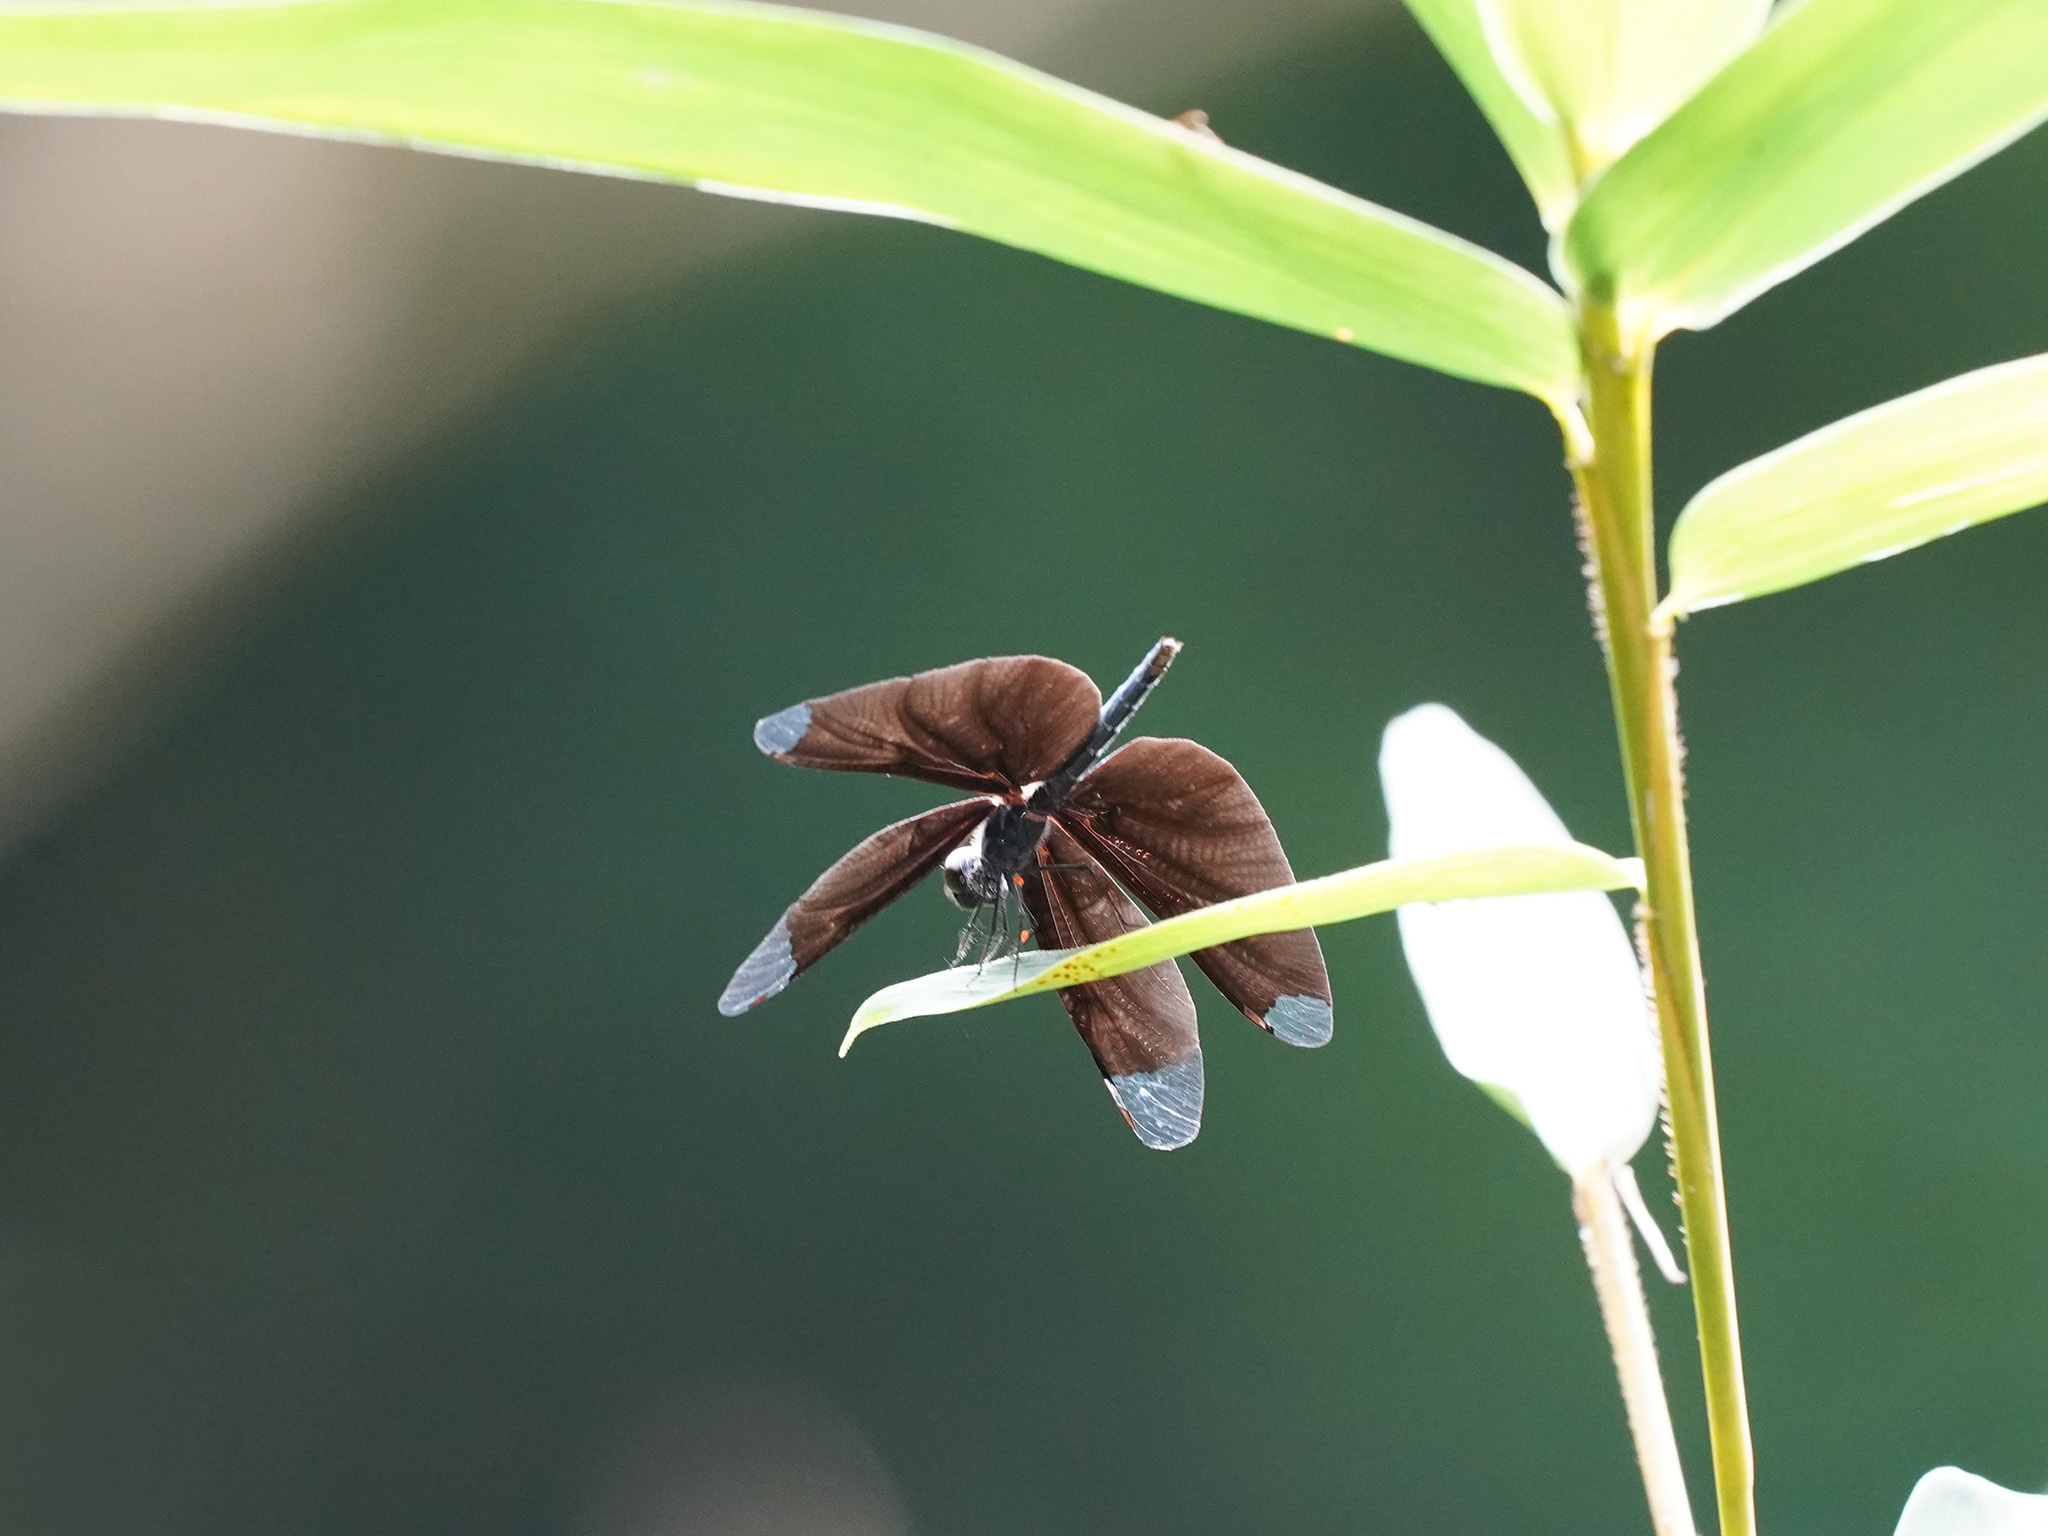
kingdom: Animalia
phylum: Arthropoda
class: Insecta
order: Odonata
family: Libellulidae
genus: Rhyothemis
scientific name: Rhyothemis plutonia
